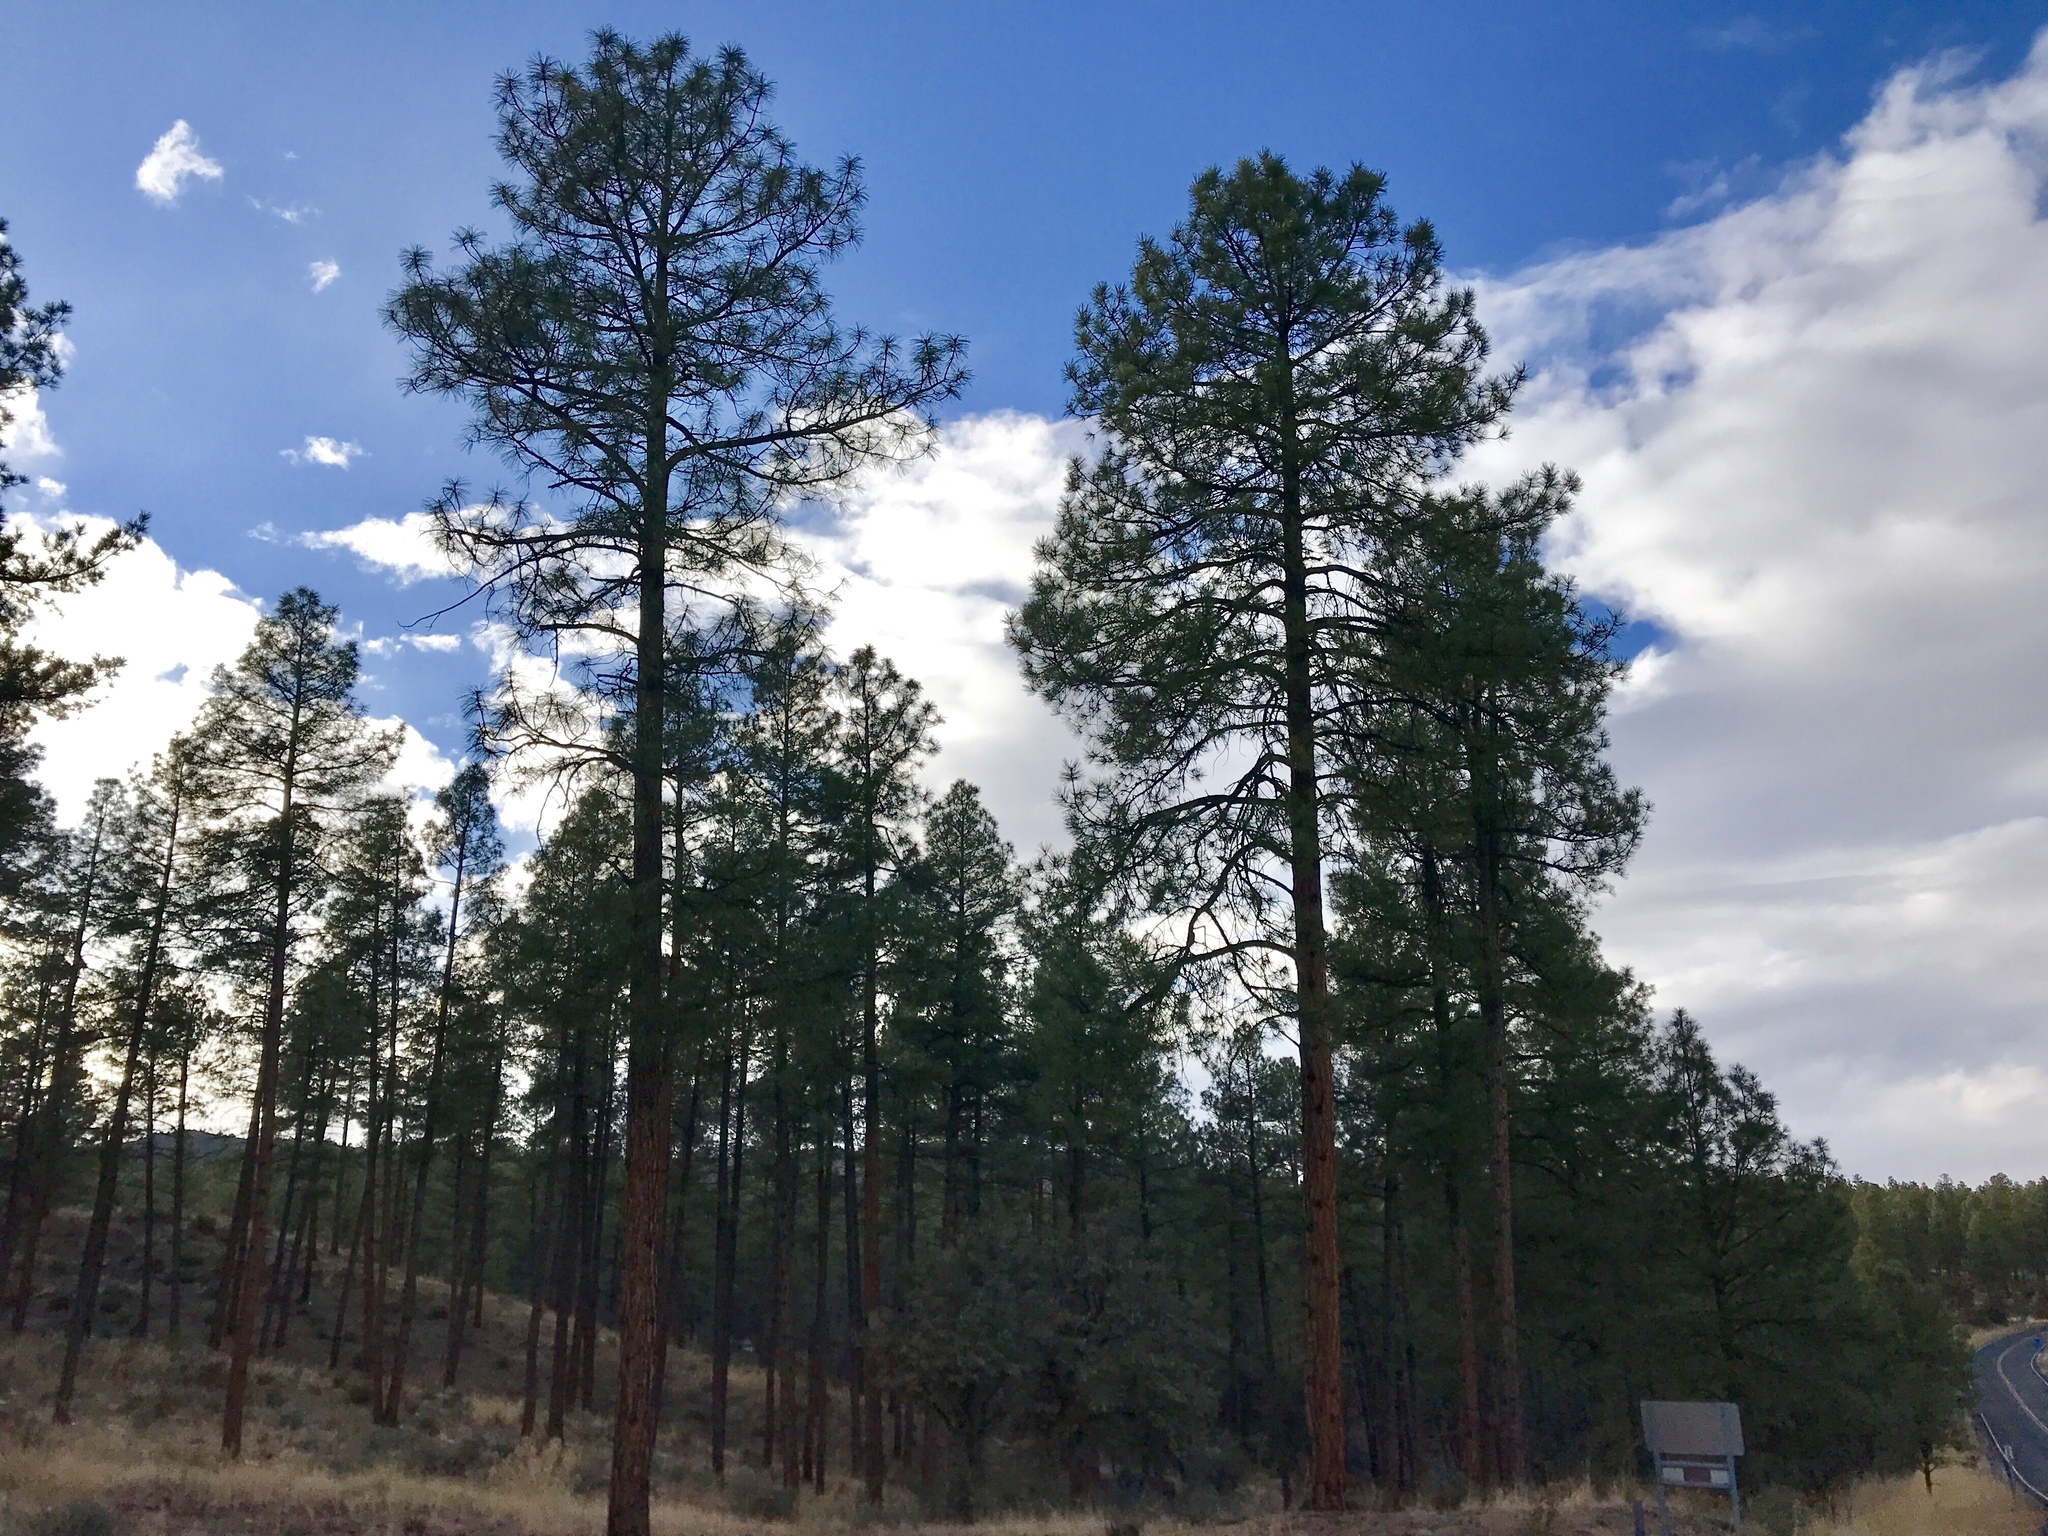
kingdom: Plantae
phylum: Tracheophyta
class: Pinopsida
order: Pinales
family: Pinaceae
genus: Pinus
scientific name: Pinus ponderosa
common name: Western yellow-pine
